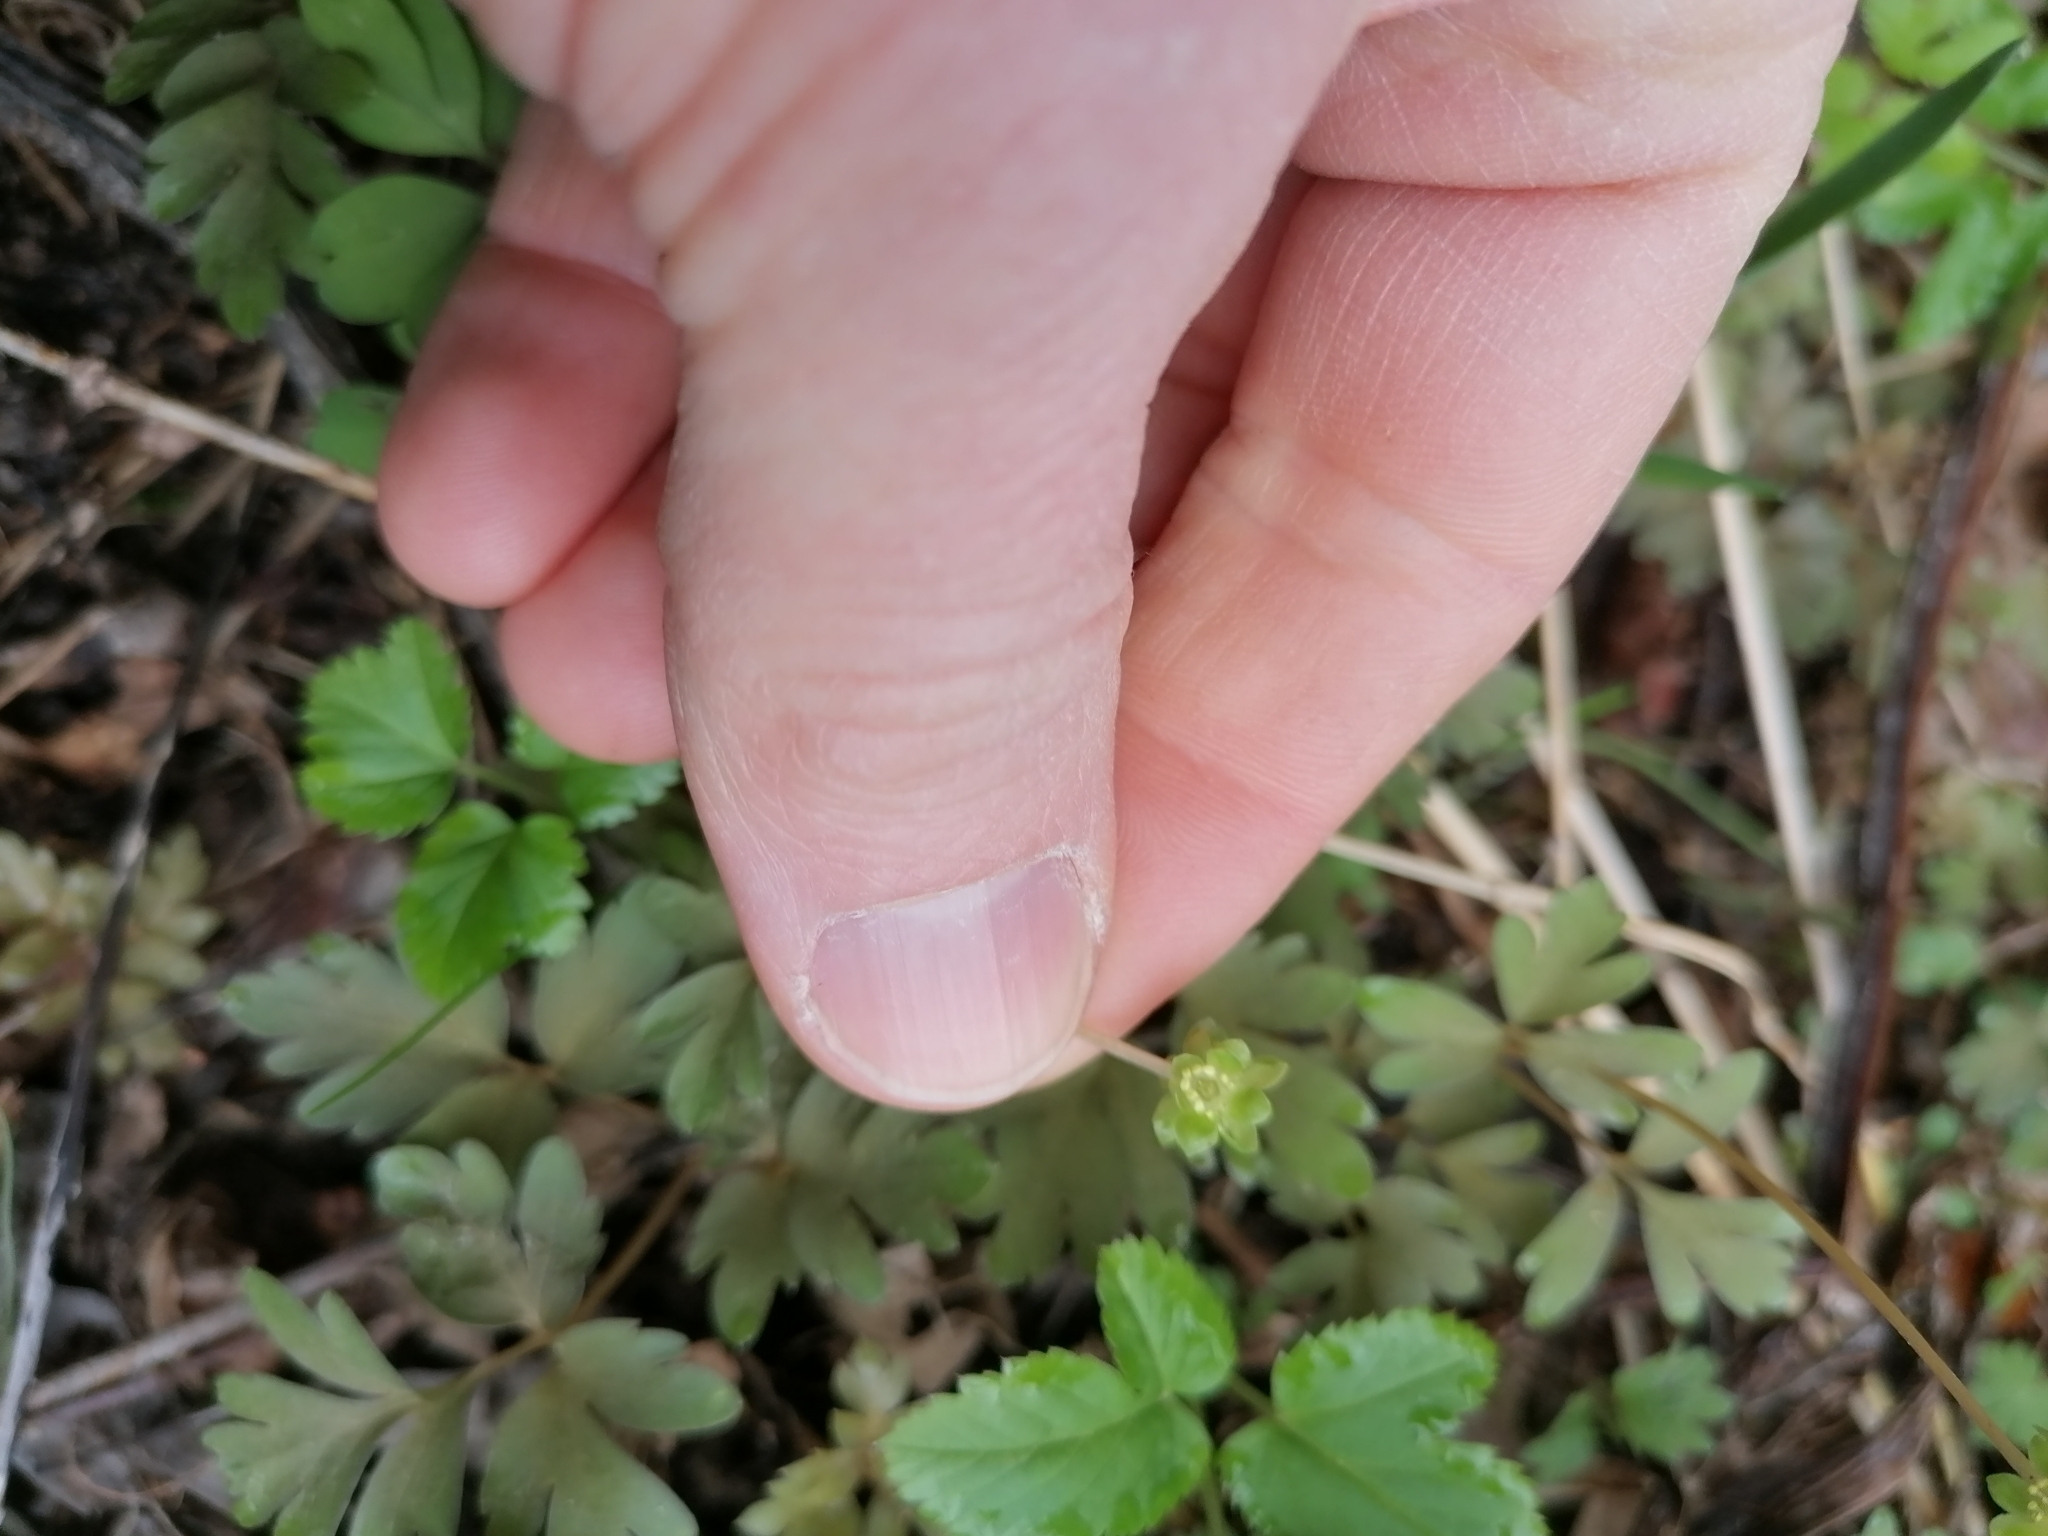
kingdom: Plantae
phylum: Tracheophyta
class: Magnoliopsida
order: Dipsacales
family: Viburnaceae
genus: Adoxa
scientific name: Adoxa moschatellina
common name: Moschatel
